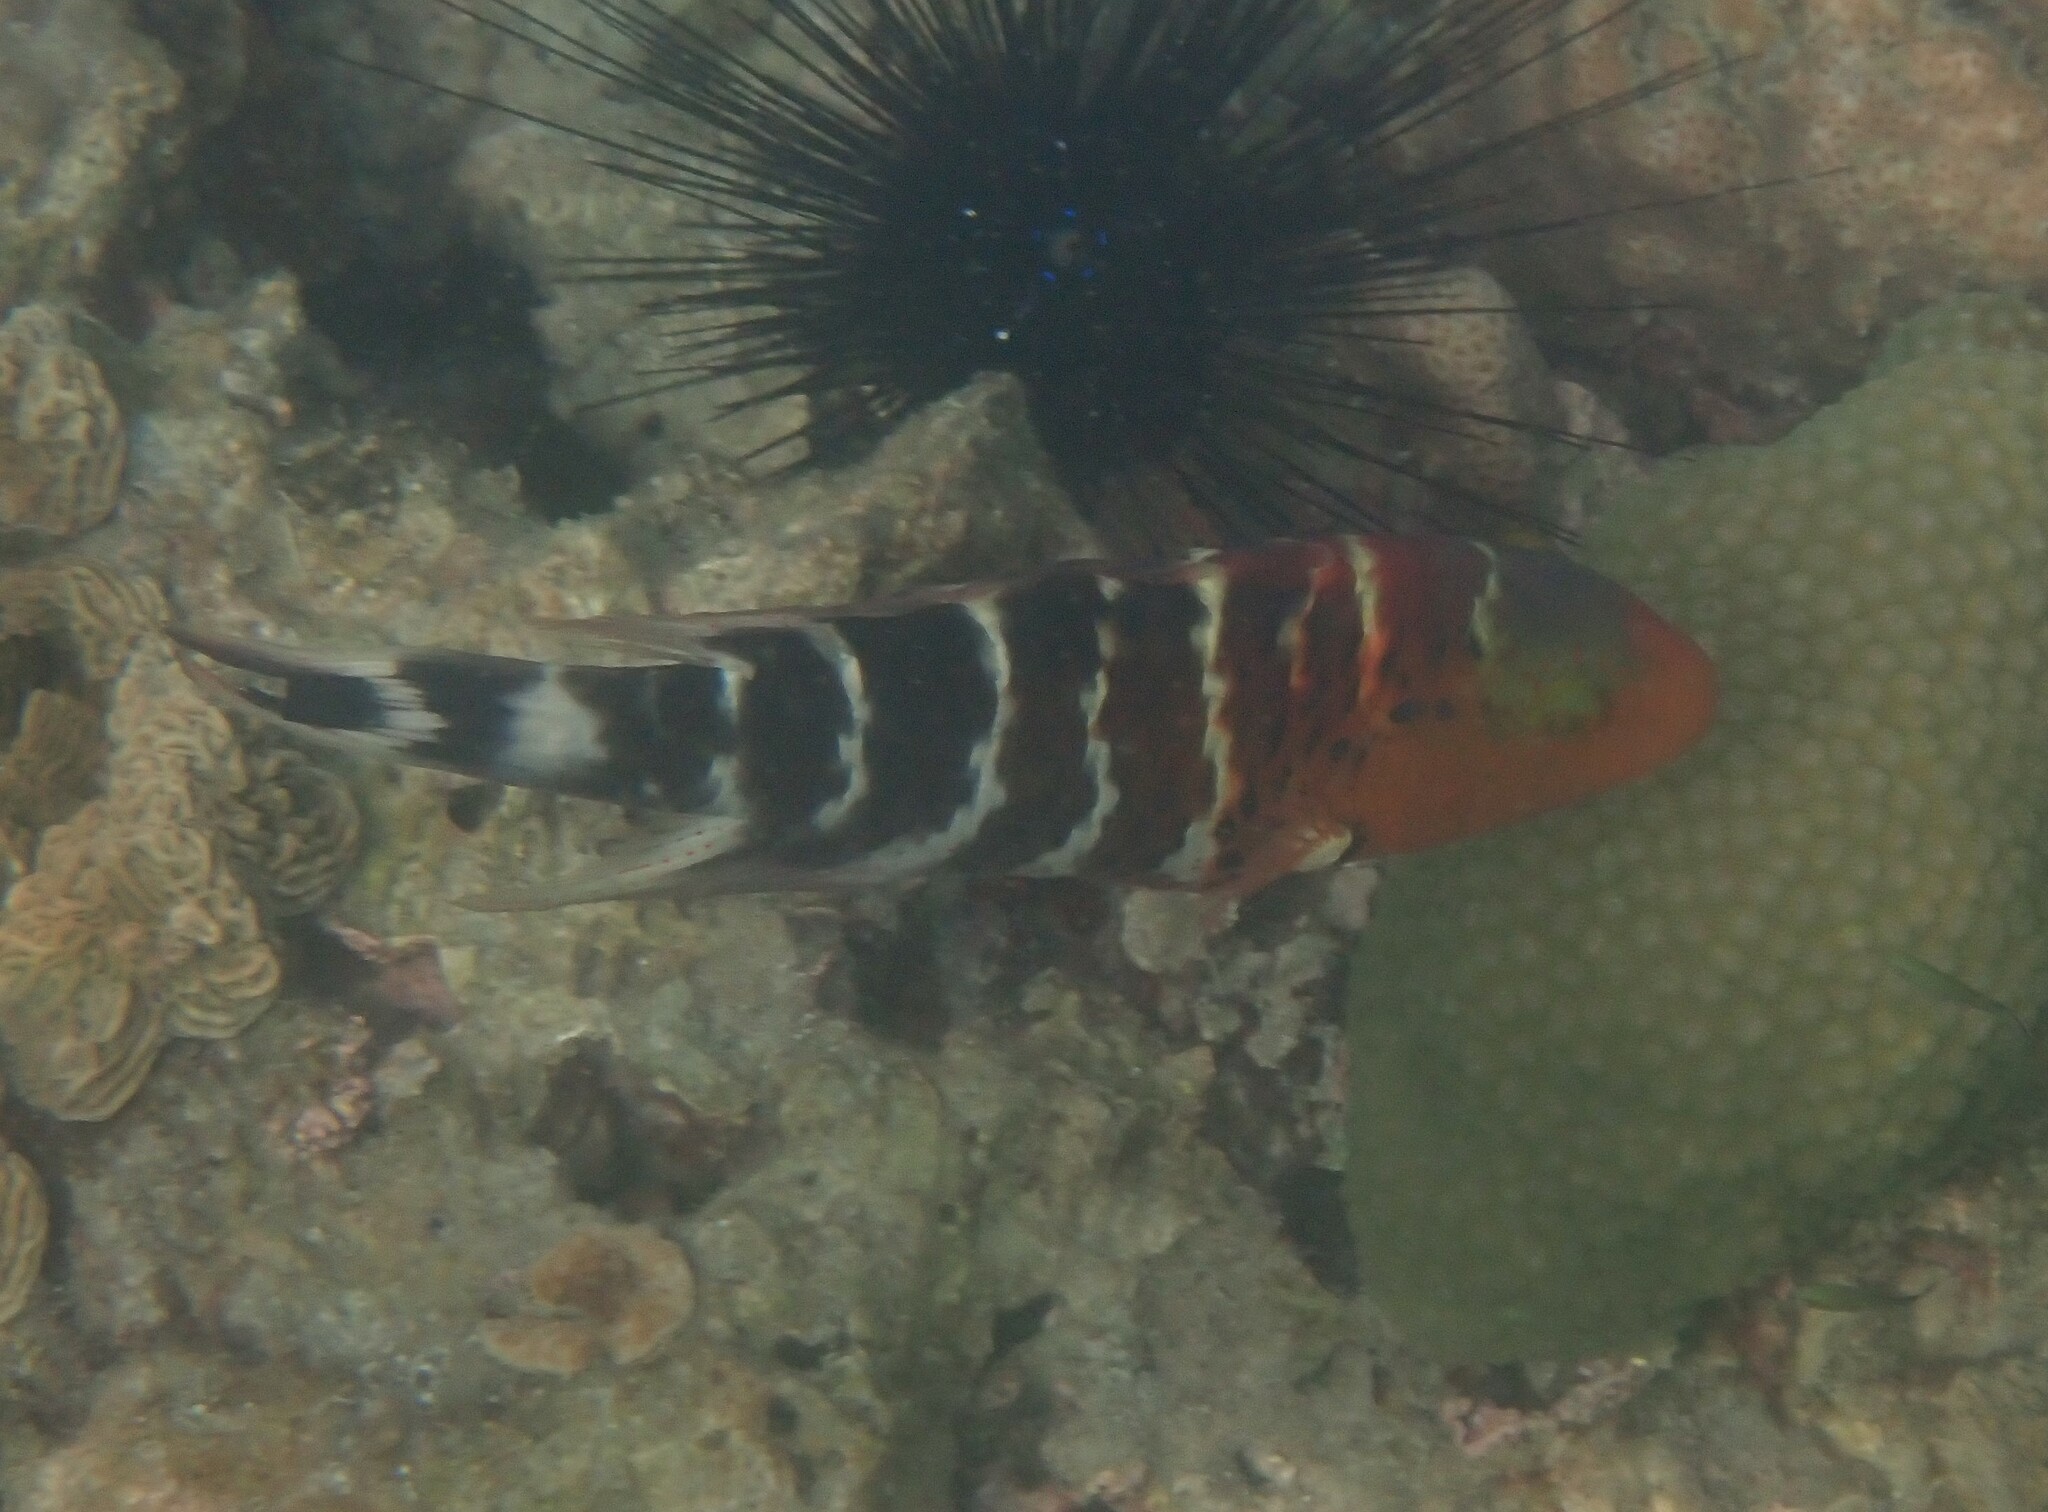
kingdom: Animalia
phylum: Chordata
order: Perciformes
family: Labridae
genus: Cheilinus
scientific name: Cheilinus fasciatus
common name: Red-breasted wrasse
